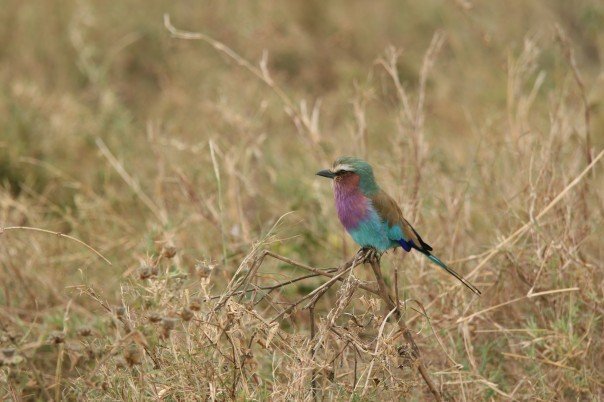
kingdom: Animalia
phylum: Chordata
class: Aves
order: Coraciiformes
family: Coraciidae
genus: Coracias
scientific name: Coracias caudatus
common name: Lilac-breasted roller
